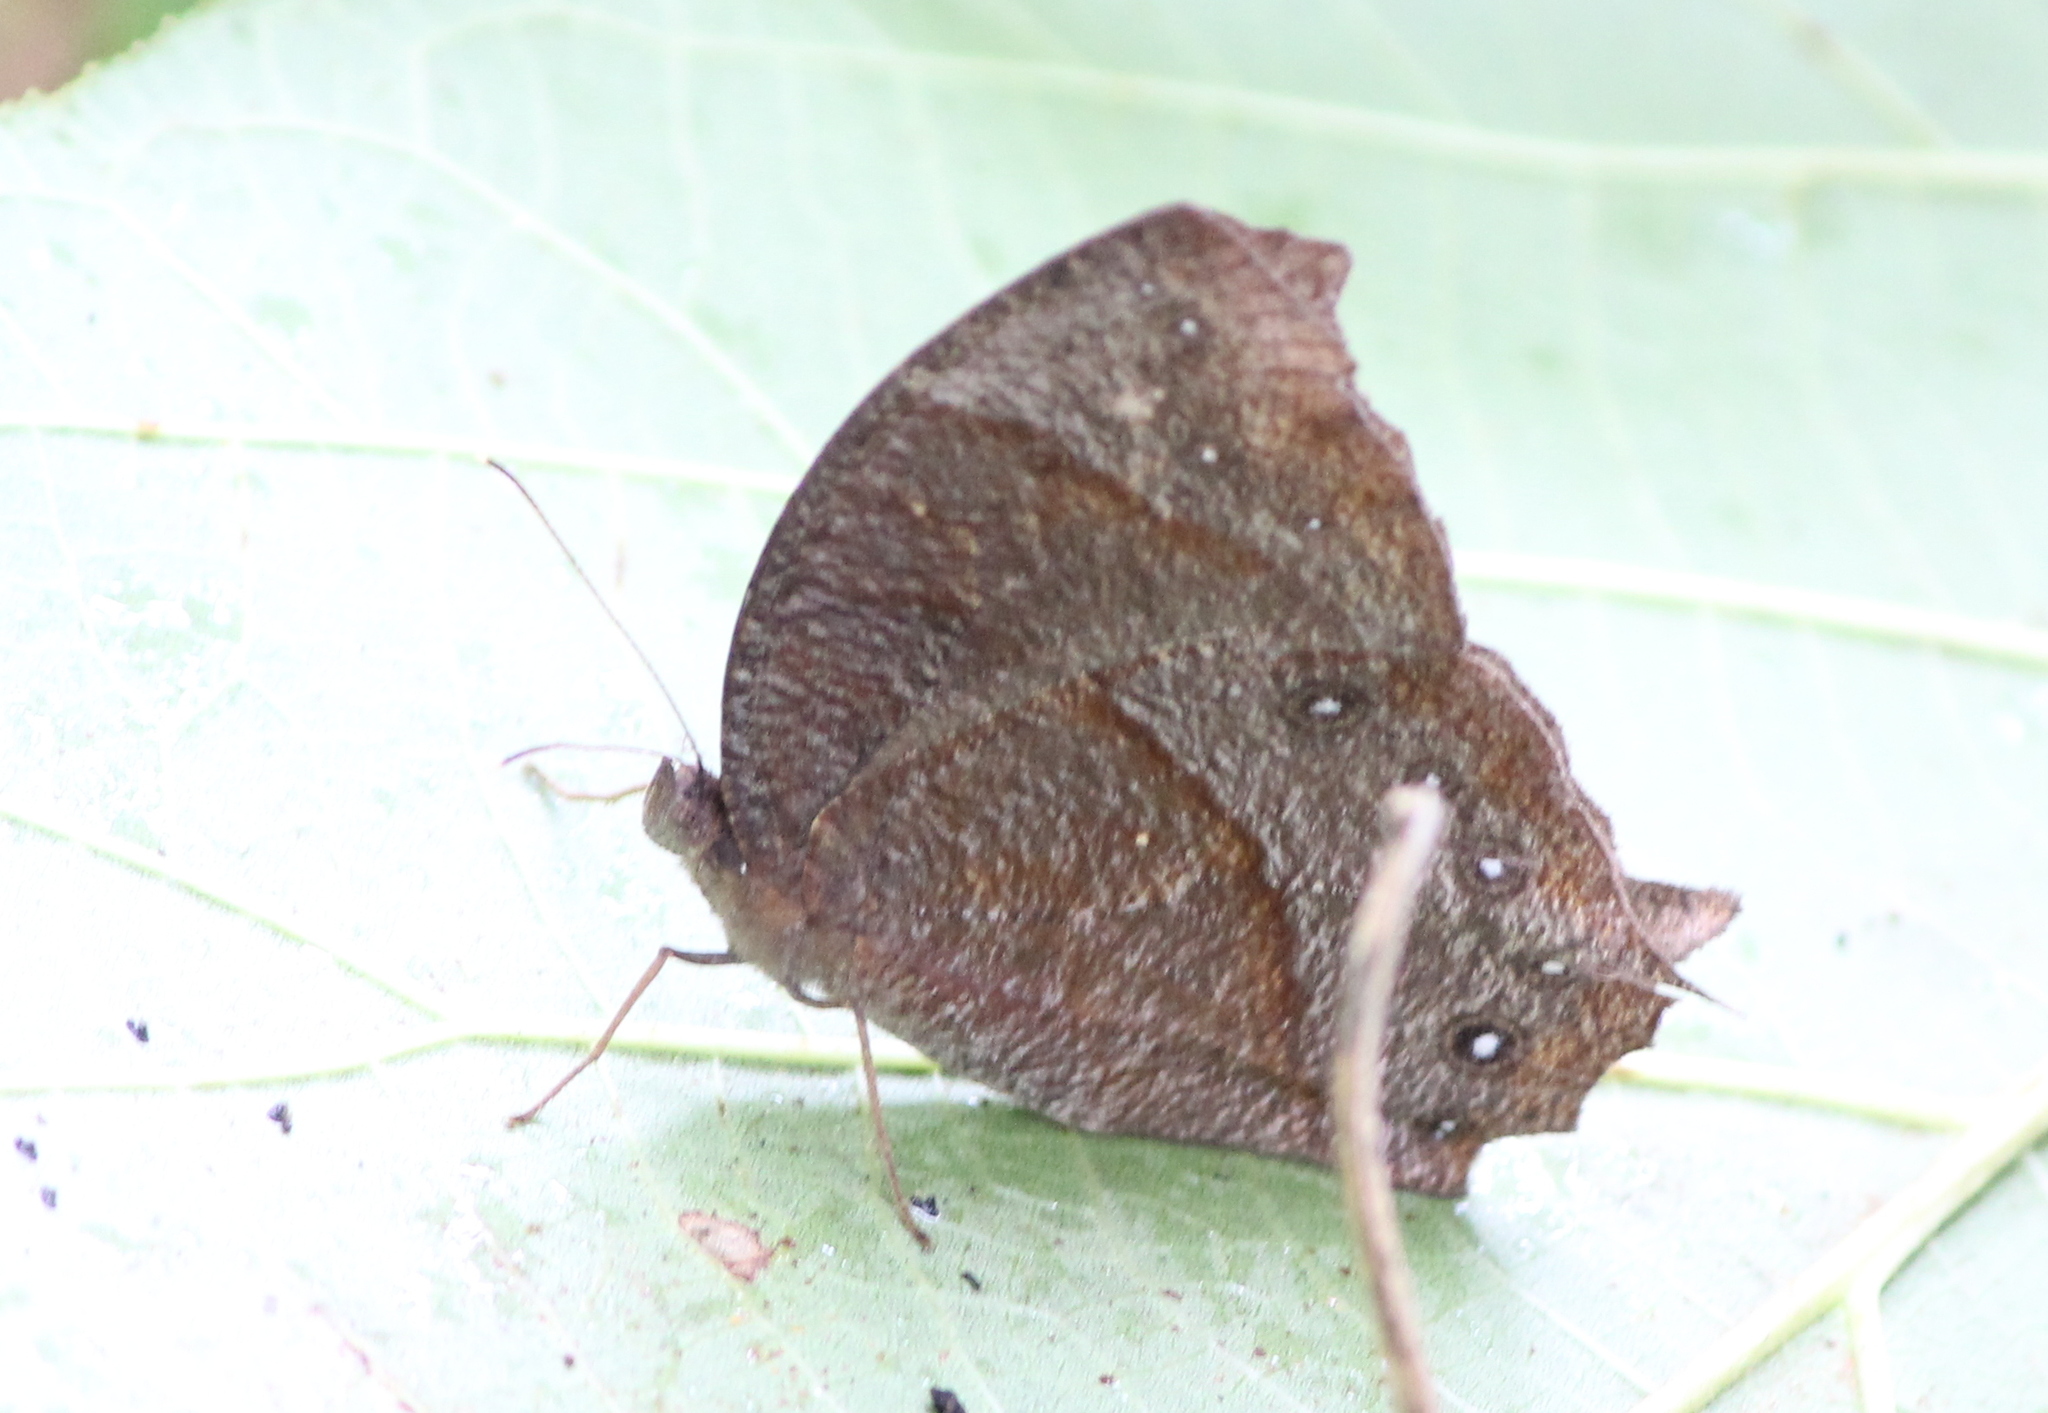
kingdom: Animalia
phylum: Arthropoda
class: Insecta
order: Lepidoptera
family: Nymphalidae
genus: Melanitis
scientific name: Melanitis phedima
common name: Dark evening brown
